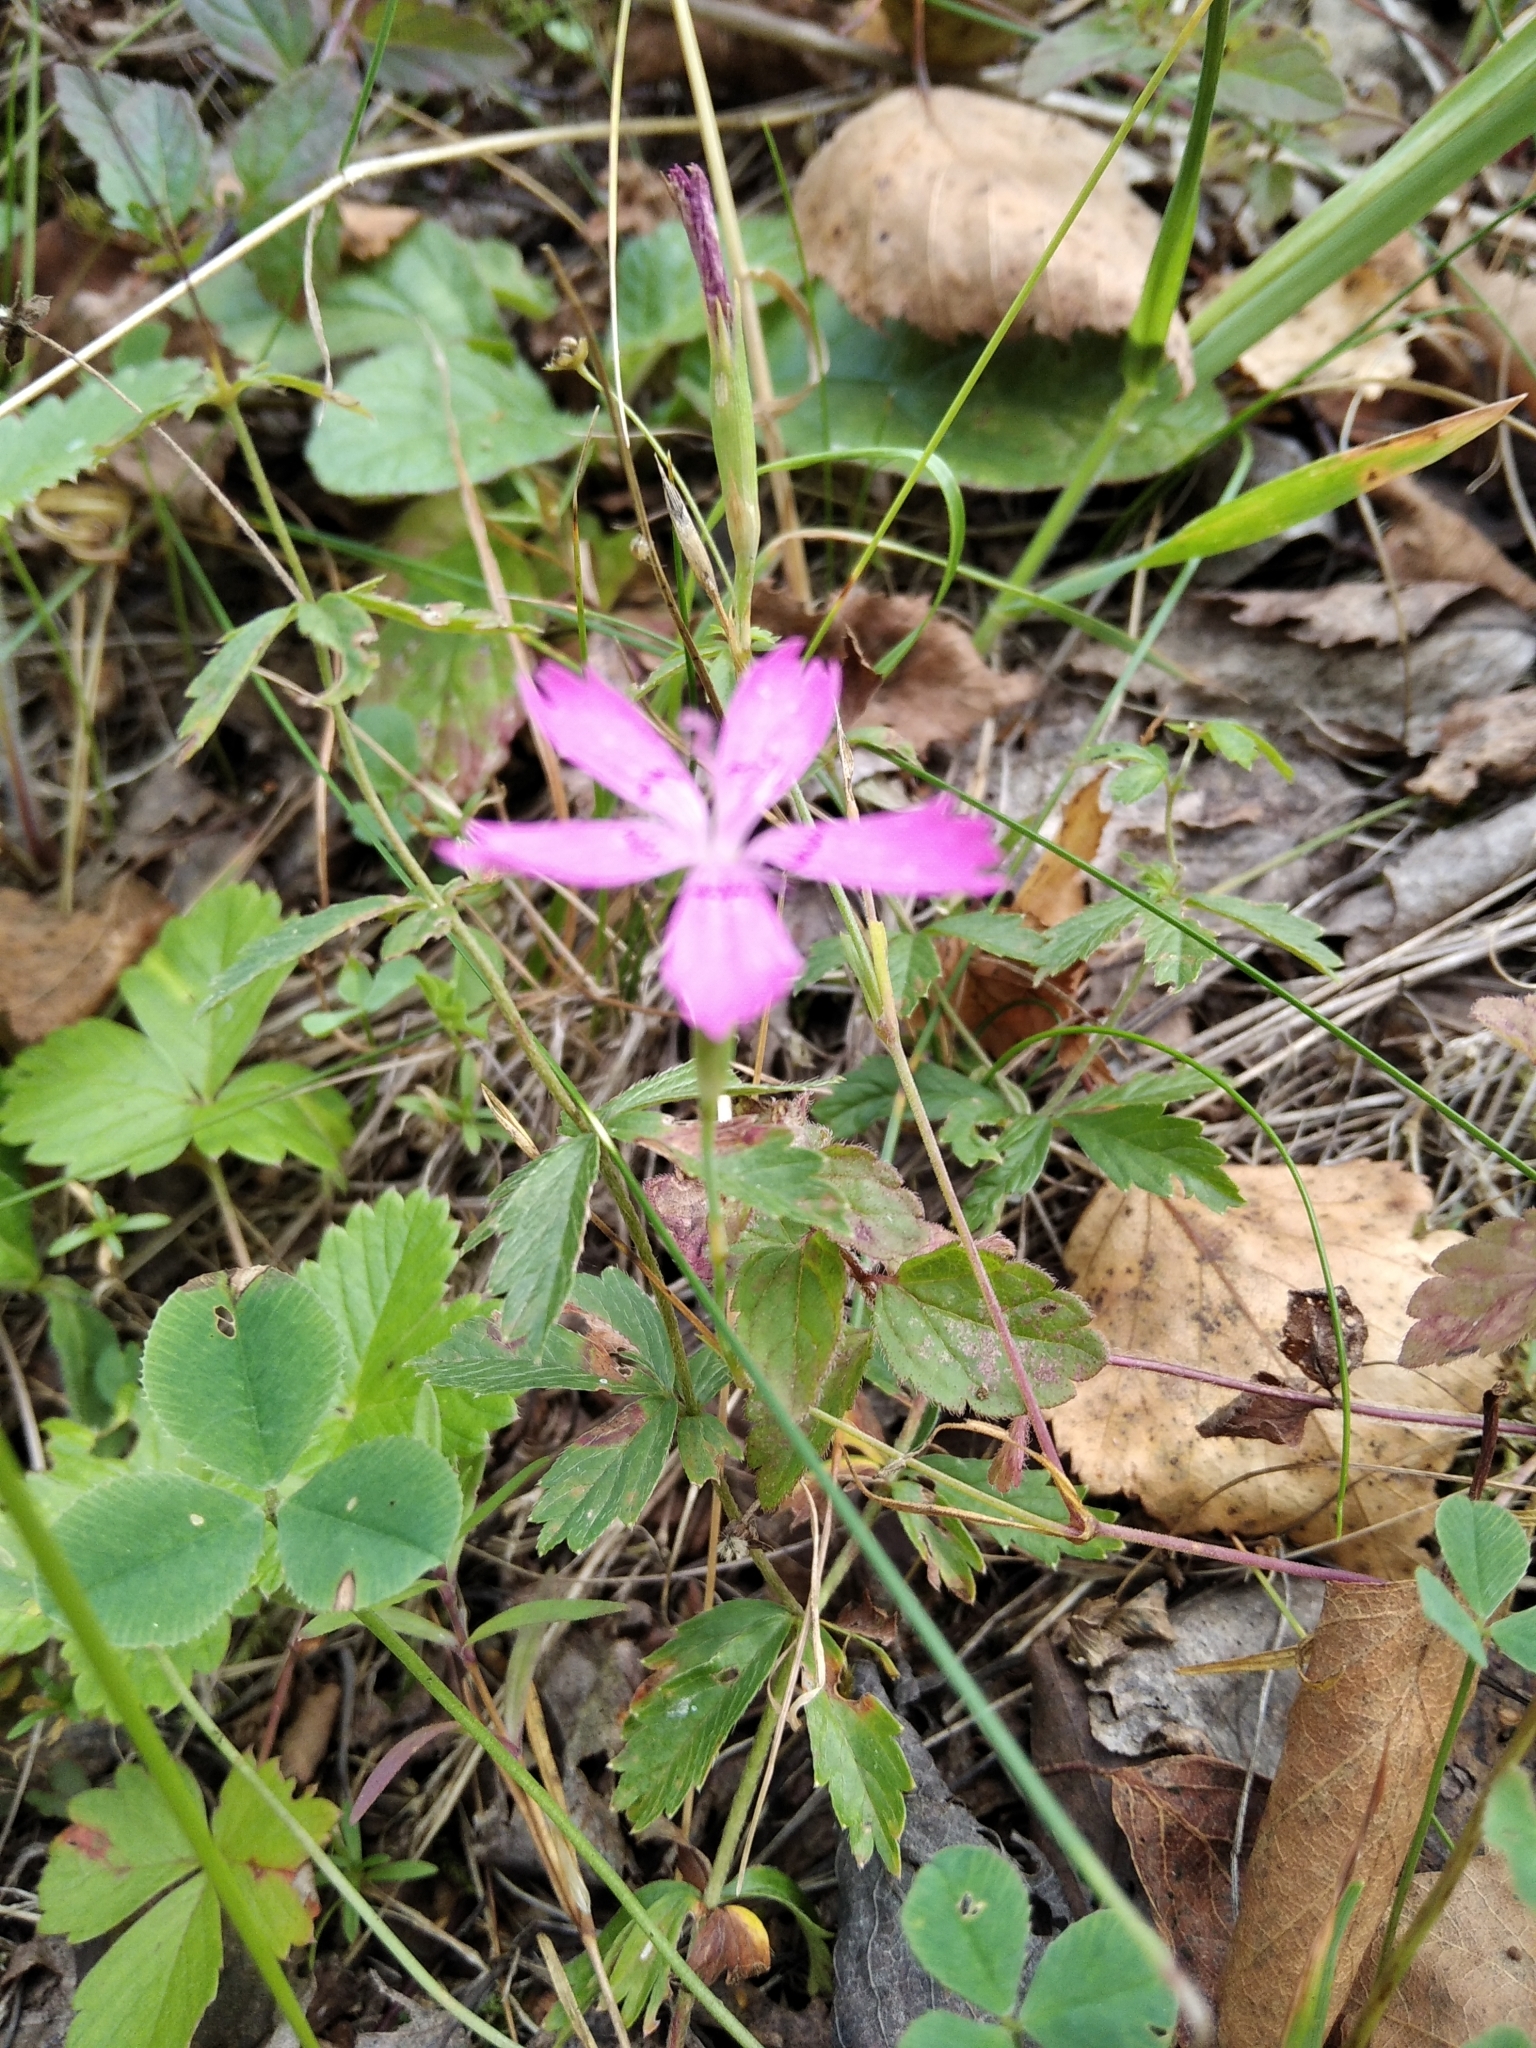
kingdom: Plantae
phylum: Tracheophyta
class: Magnoliopsida
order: Caryophyllales
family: Caryophyllaceae
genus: Dianthus
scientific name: Dianthus deltoides
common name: Maiden pink
